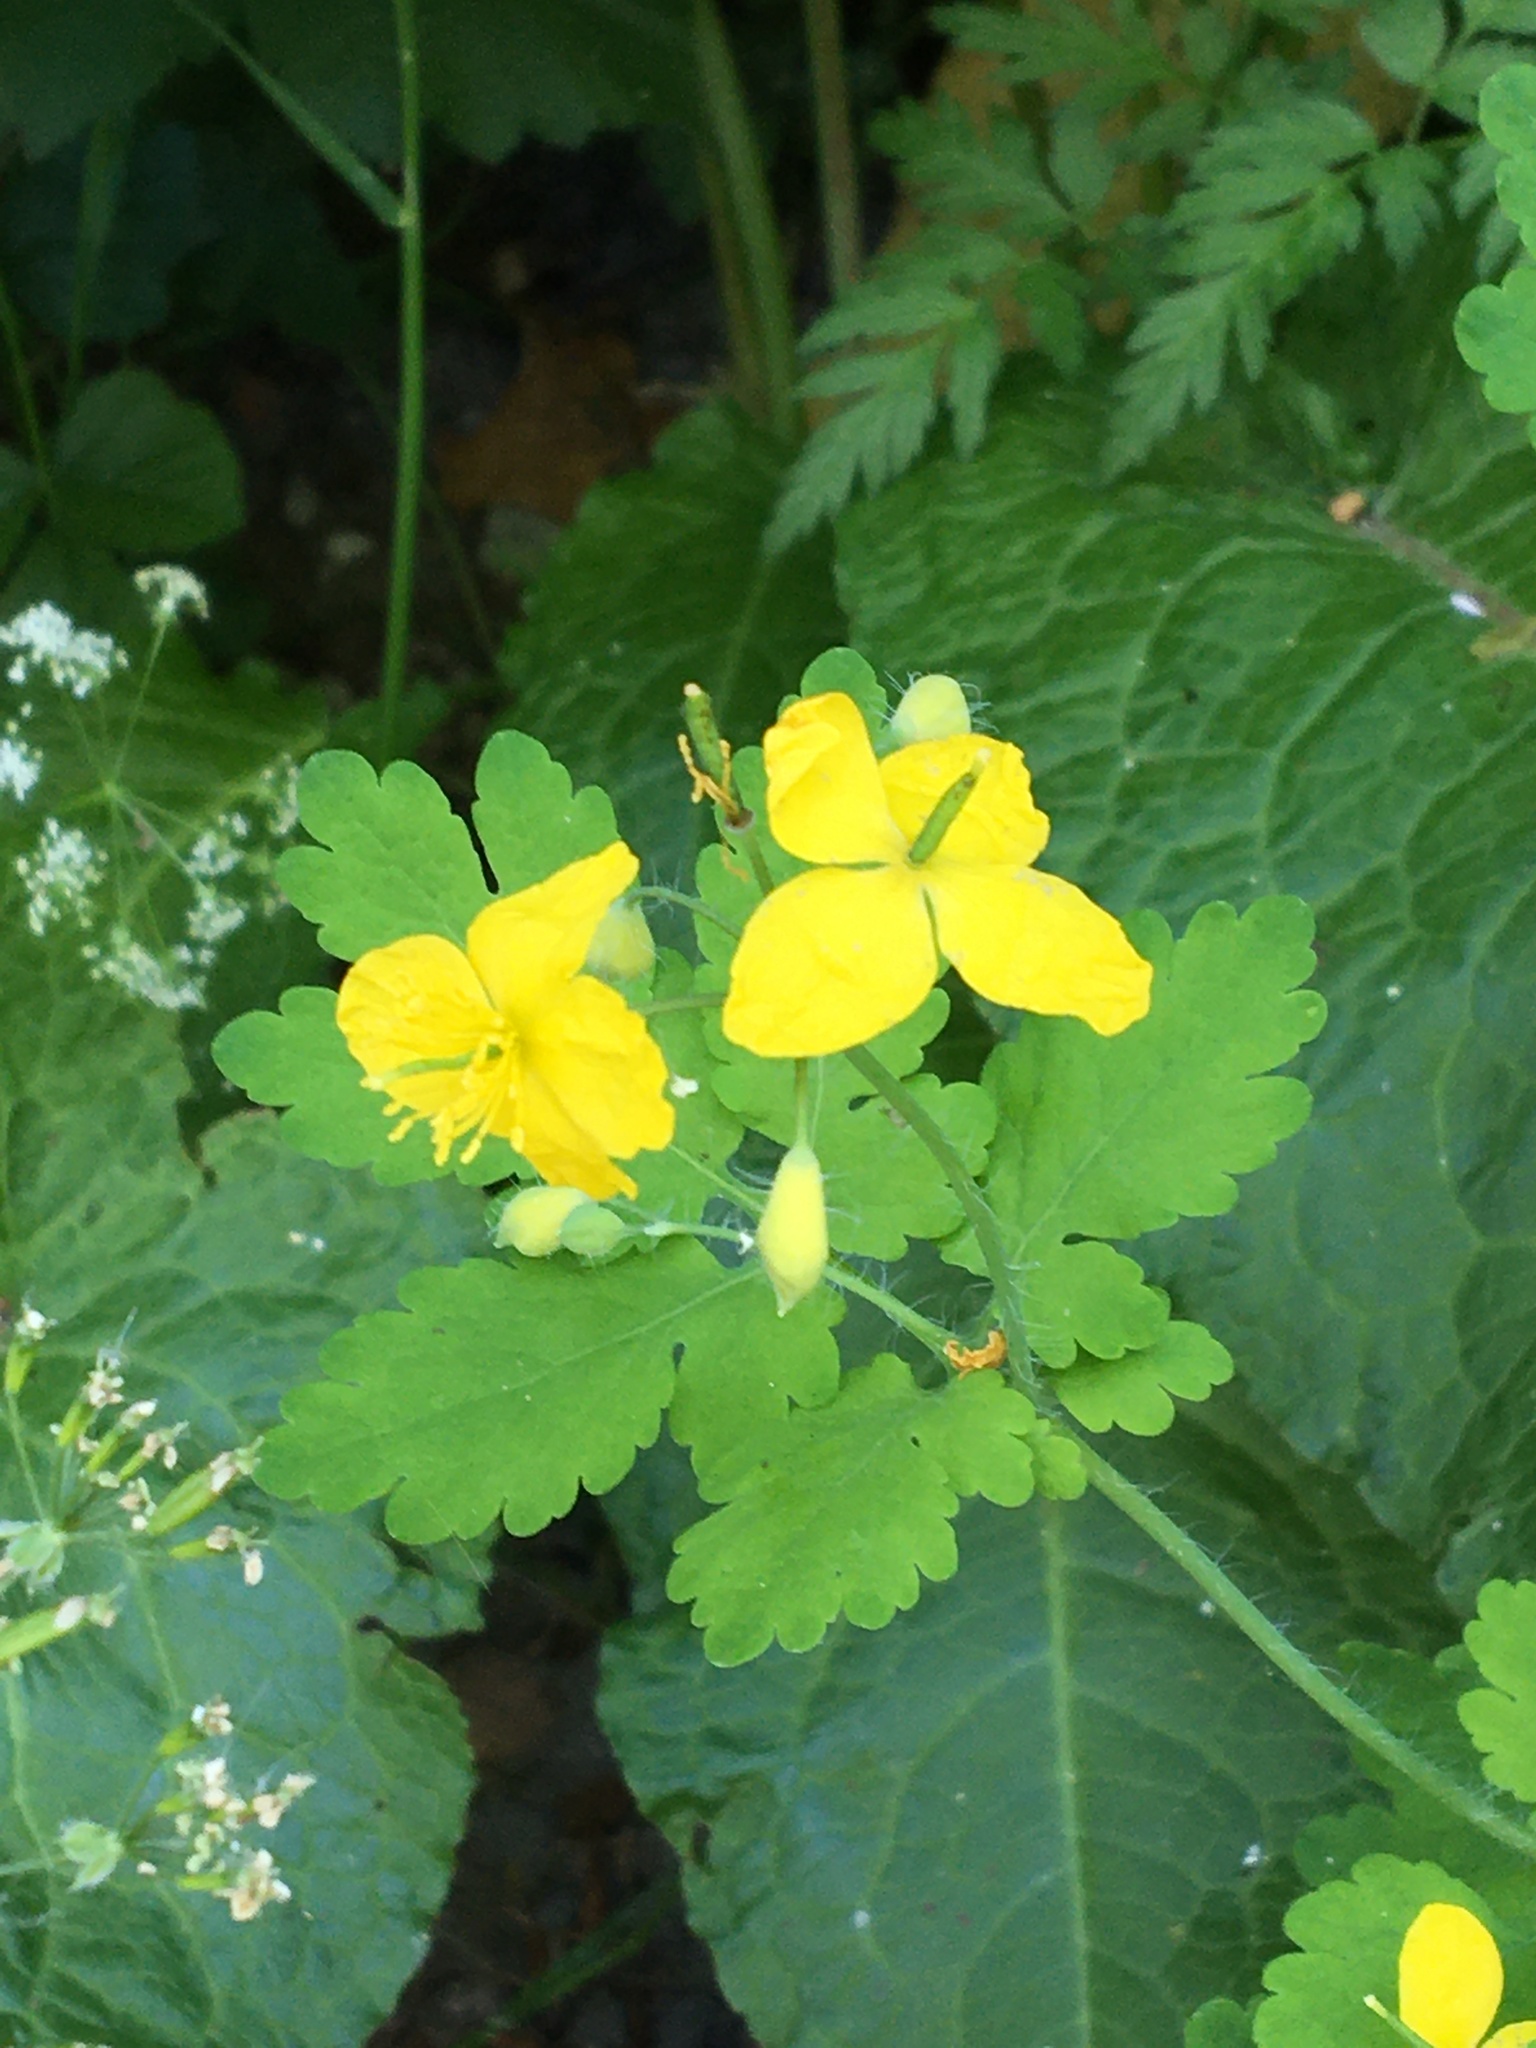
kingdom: Plantae
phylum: Tracheophyta
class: Magnoliopsida
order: Ranunculales
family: Papaveraceae
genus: Chelidonium
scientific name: Chelidonium majus
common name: Greater celandine
